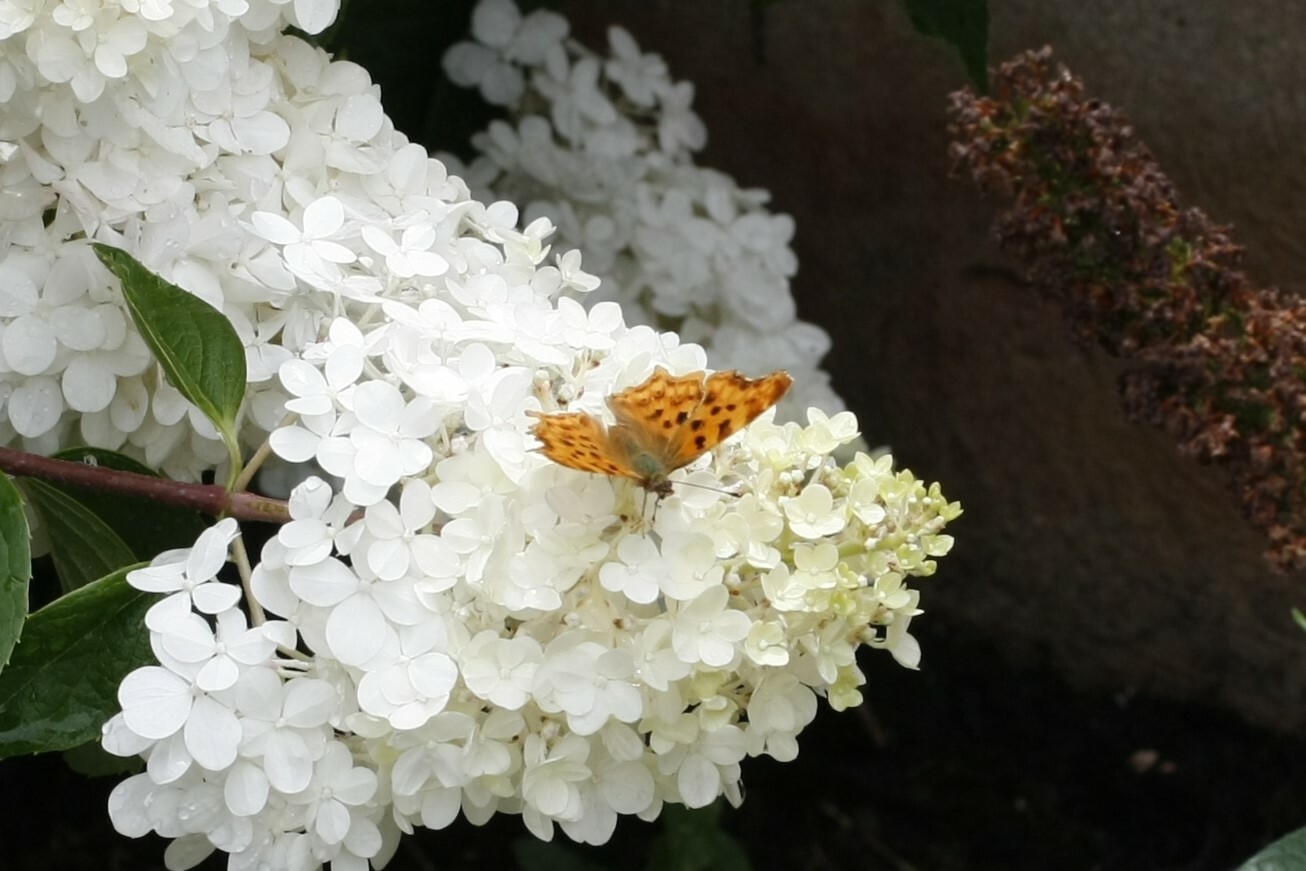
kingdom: Animalia
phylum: Arthropoda
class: Insecta
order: Lepidoptera
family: Nymphalidae
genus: Polygonia
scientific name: Polygonia c-album
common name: Comma
